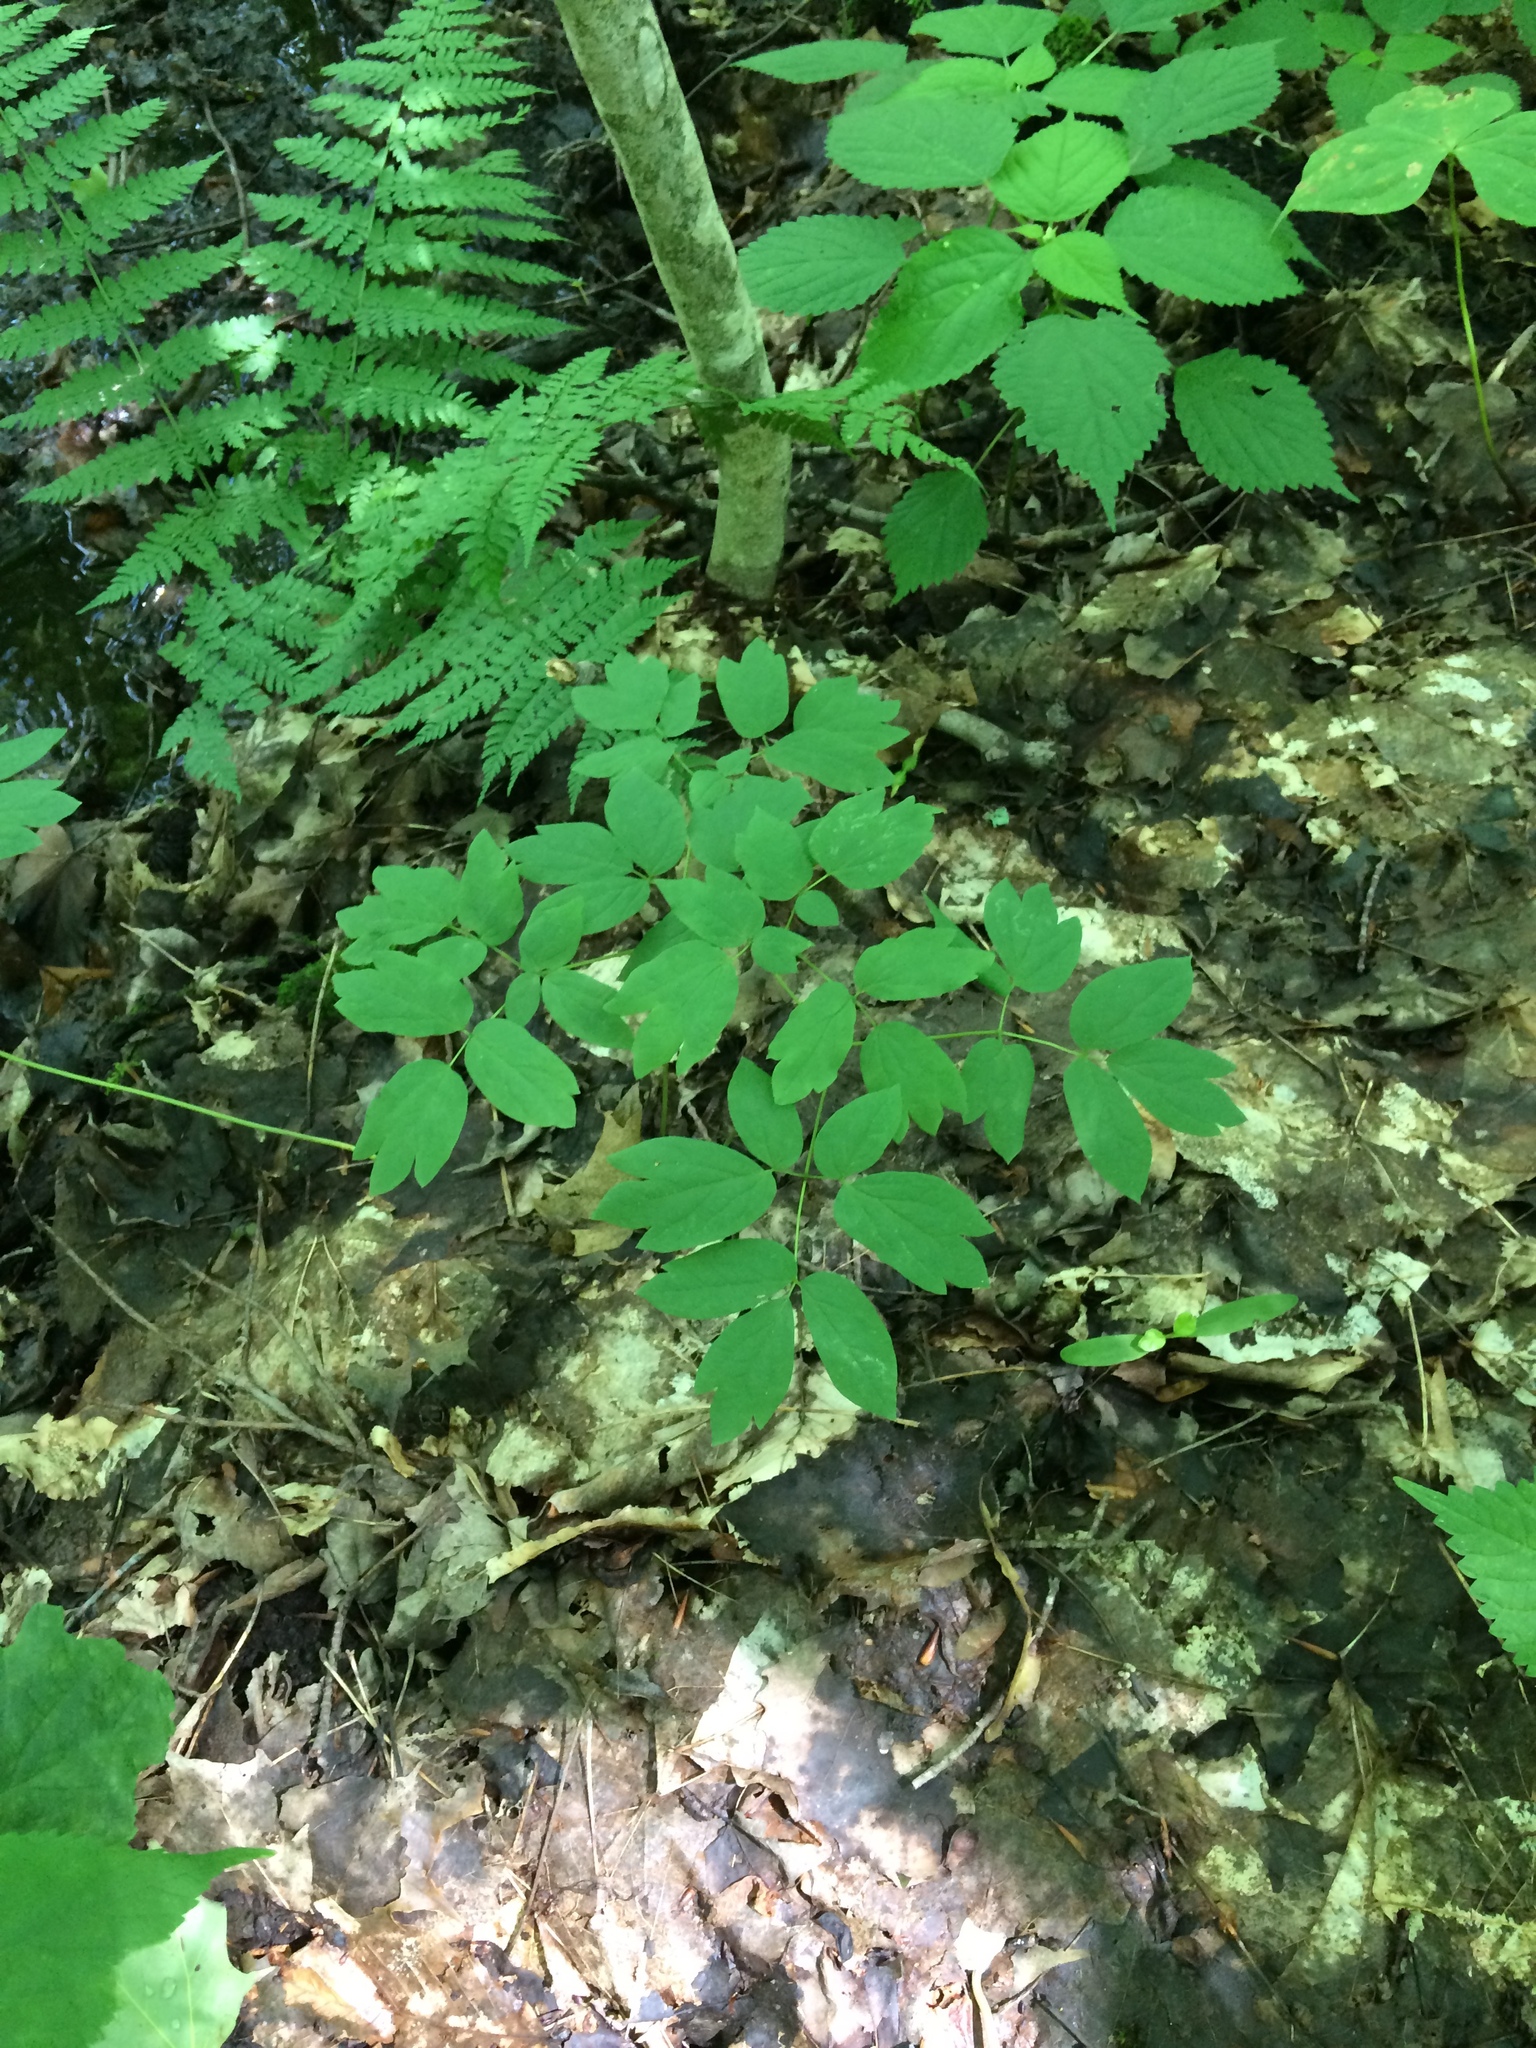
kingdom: Plantae
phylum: Tracheophyta
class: Magnoliopsida
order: Ranunculales
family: Berberidaceae
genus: Caulophyllum
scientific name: Caulophyllum
